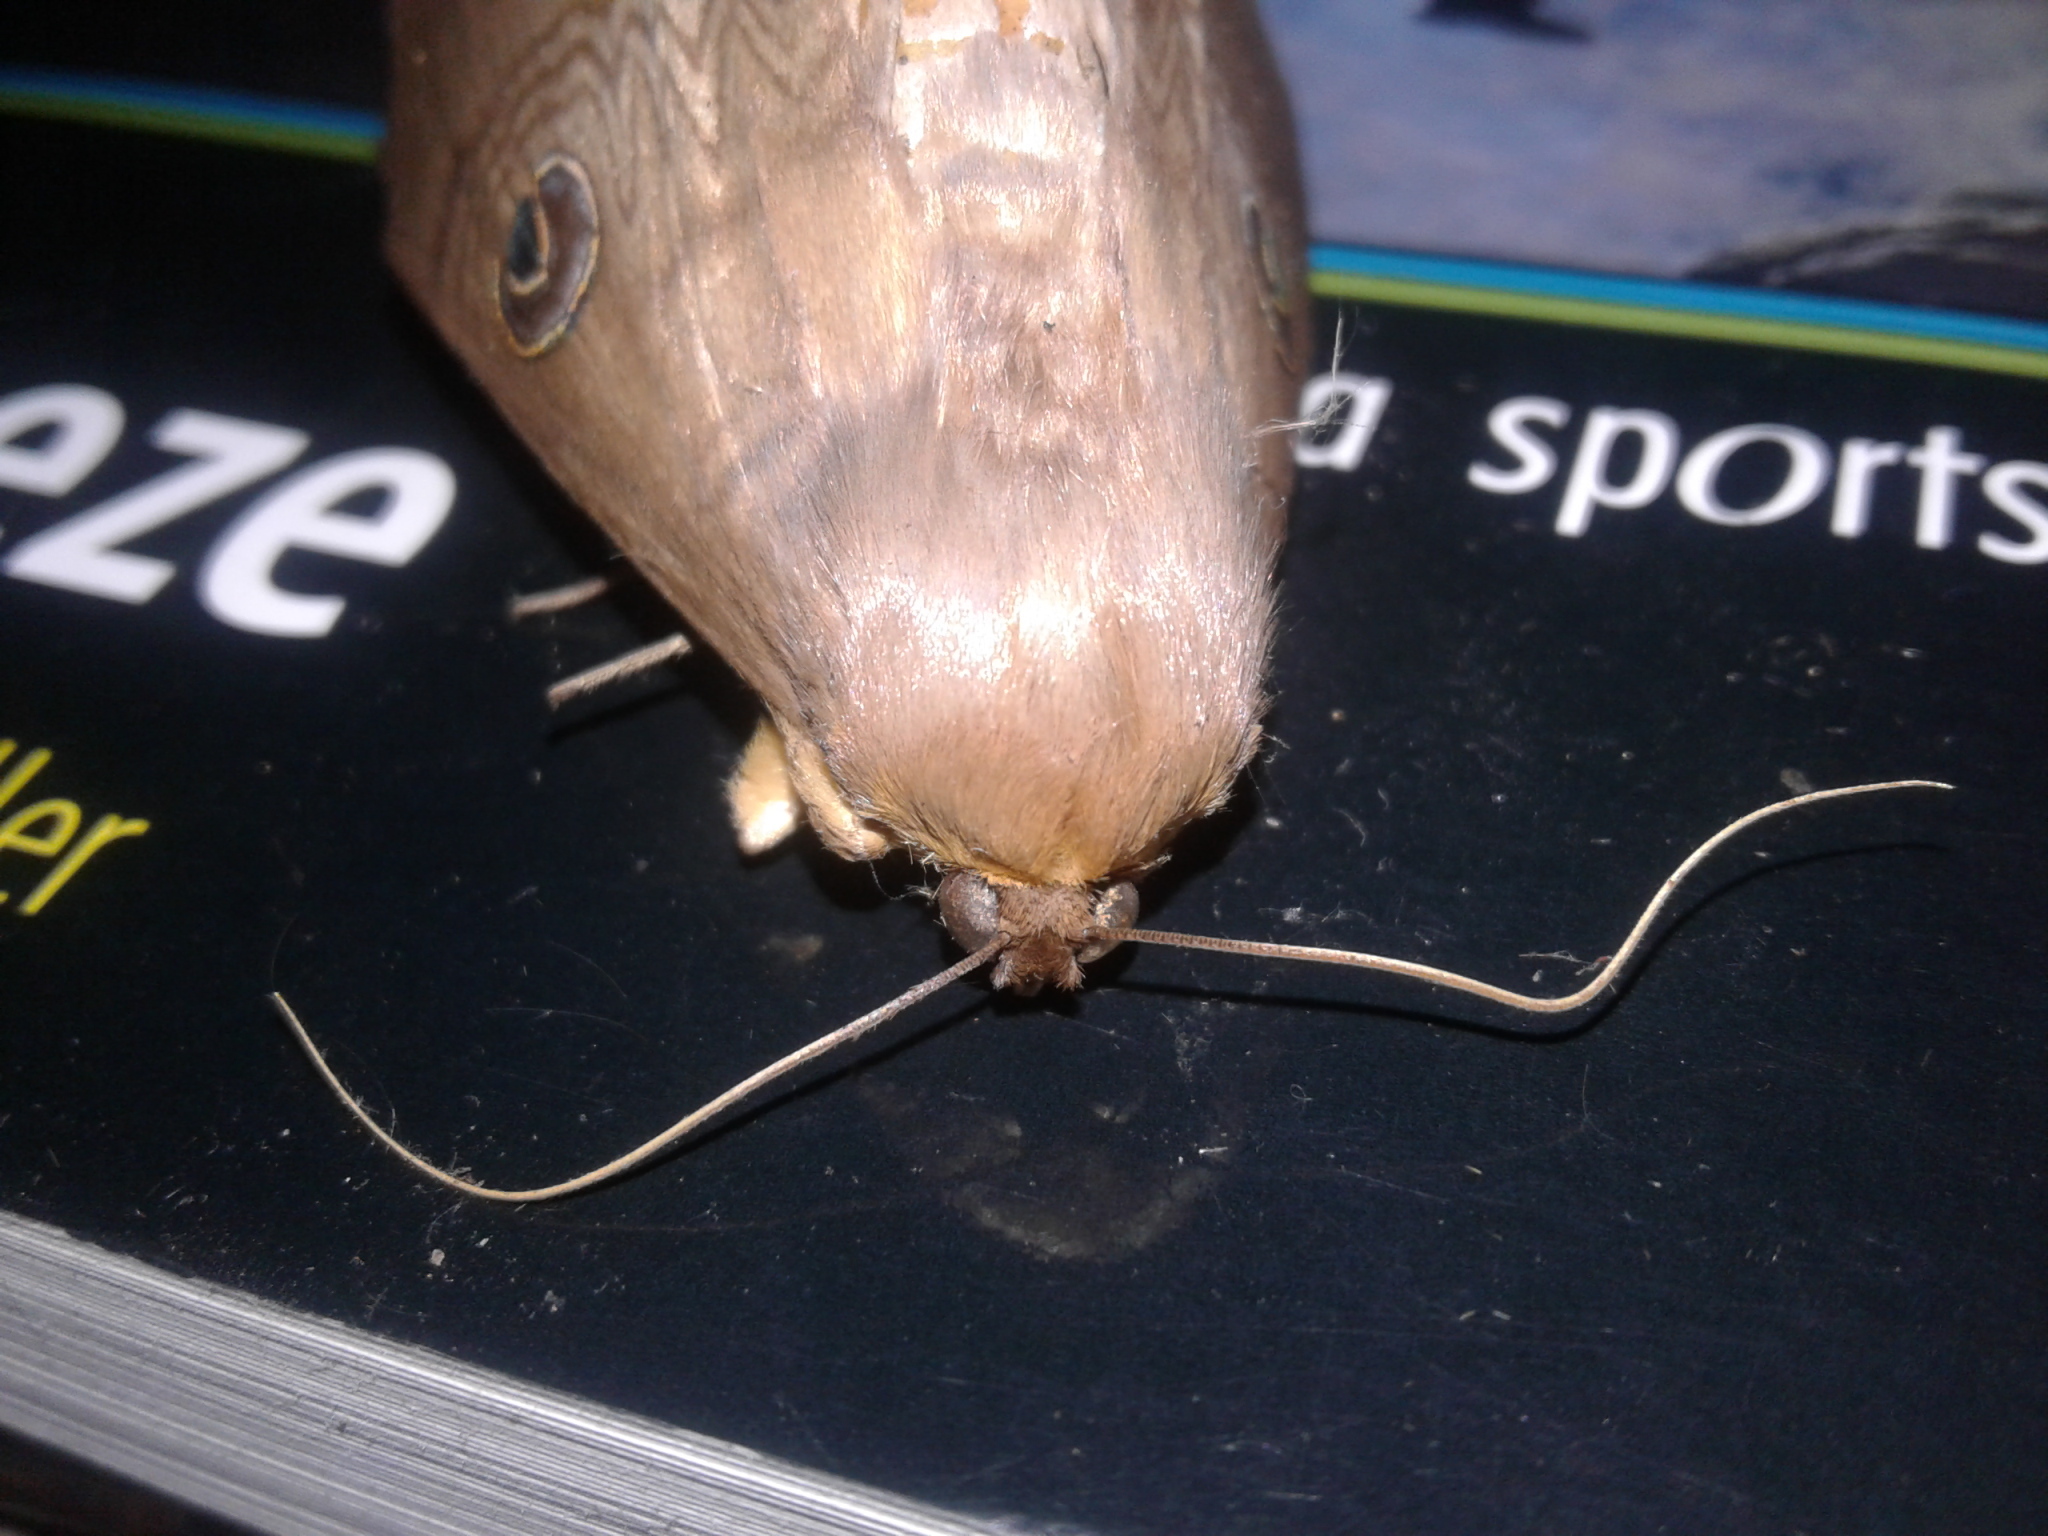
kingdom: Animalia
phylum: Arthropoda
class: Insecta
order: Lepidoptera
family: Erebidae
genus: Dasypodia
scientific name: Dasypodia selenophora
